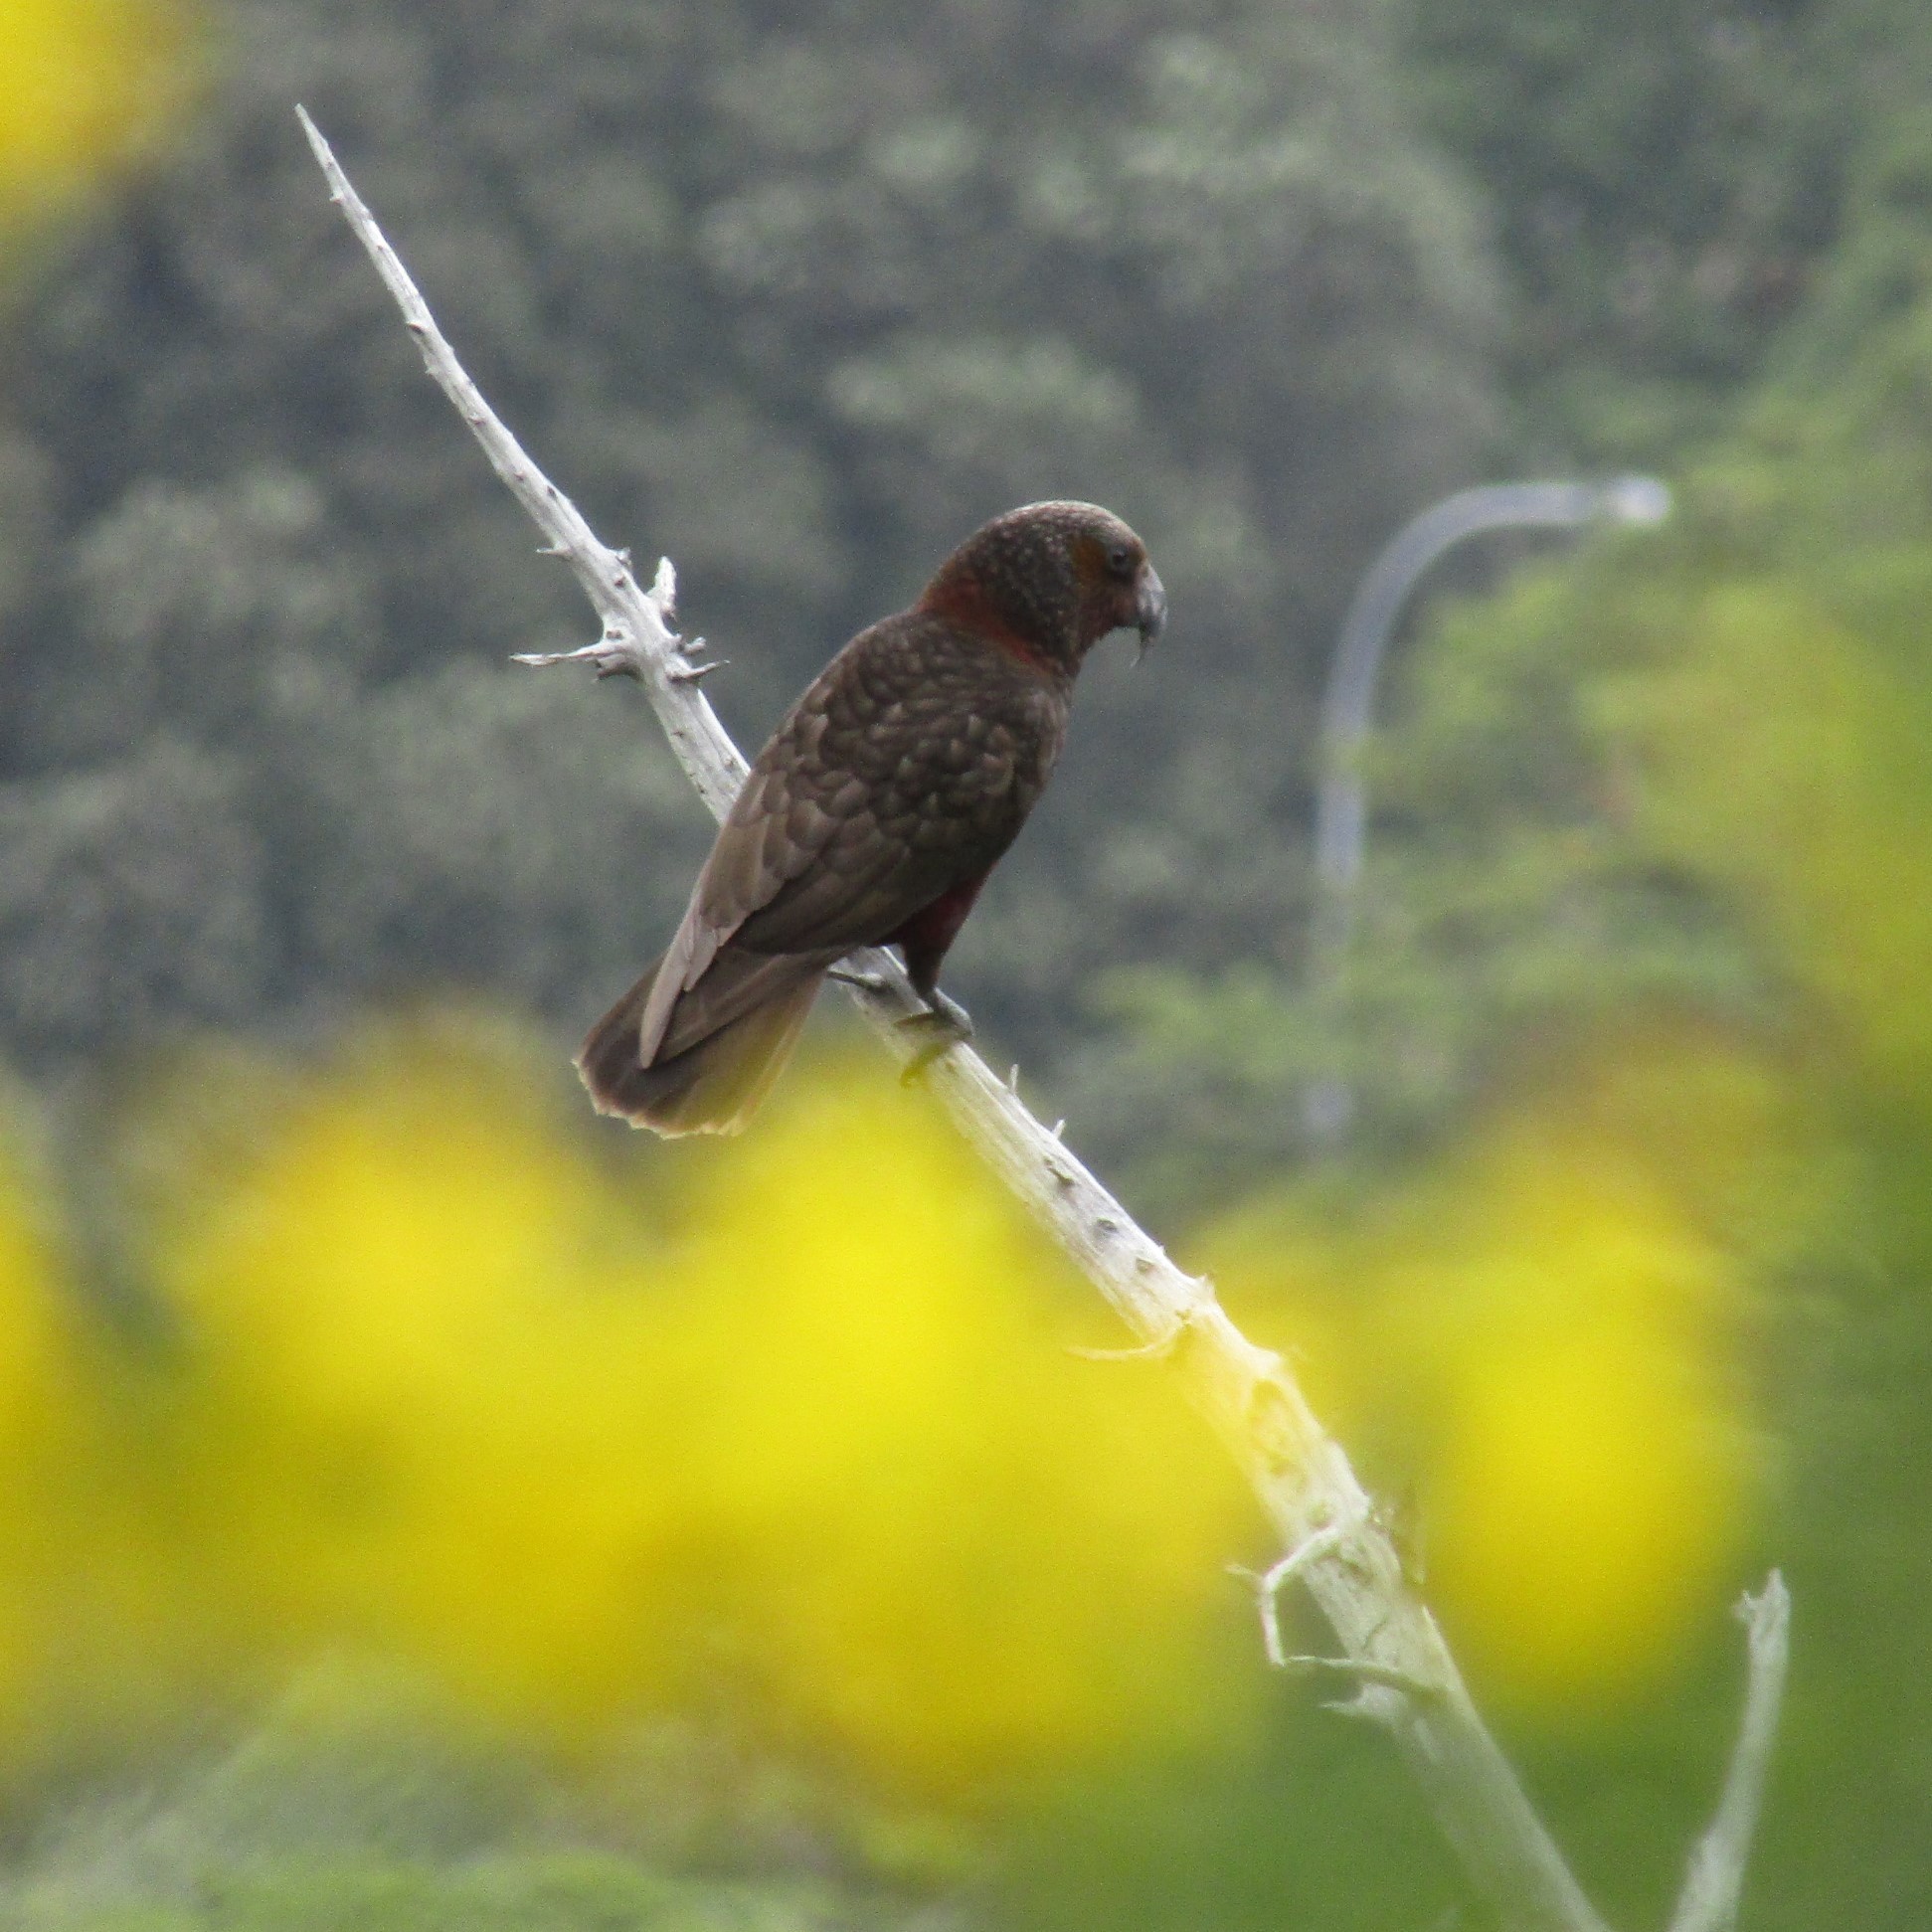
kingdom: Animalia
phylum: Chordata
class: Aves
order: Psittaciformes
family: Psittacidae
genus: Nestor
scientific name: Nestor meridionalis
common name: New zealand kaka
